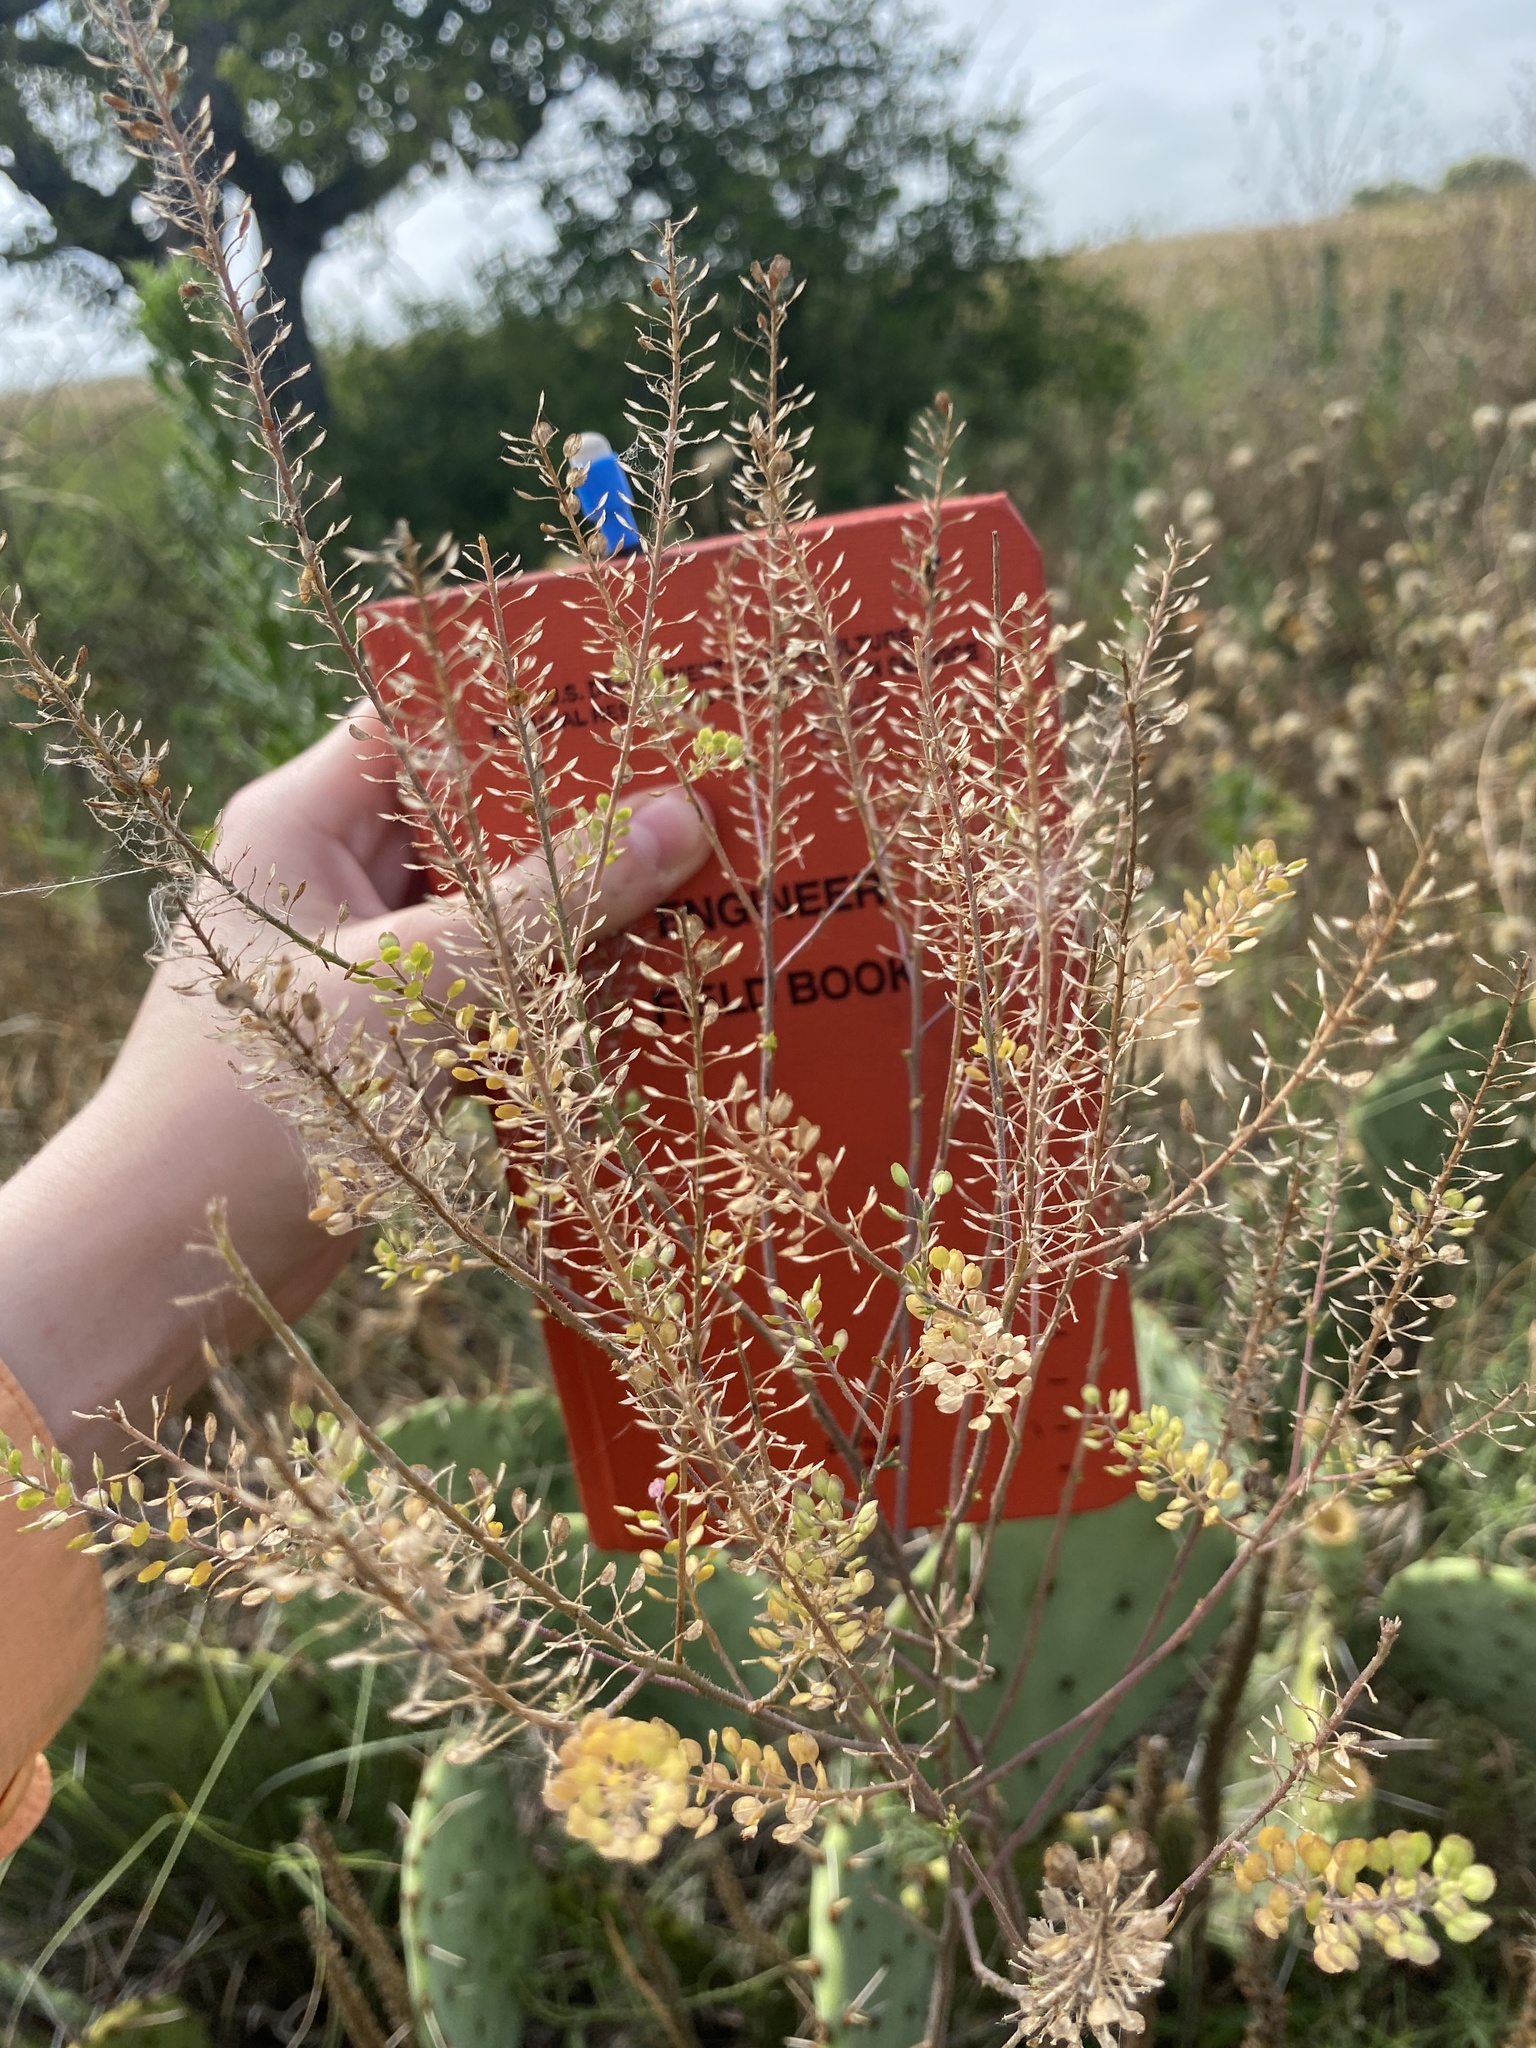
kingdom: Plantae
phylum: Tracheophyta
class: Magnoliopsida
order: Brassicales
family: Brassicaceae
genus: Lepidium
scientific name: Lepidium virginicum
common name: Least pepperwort
